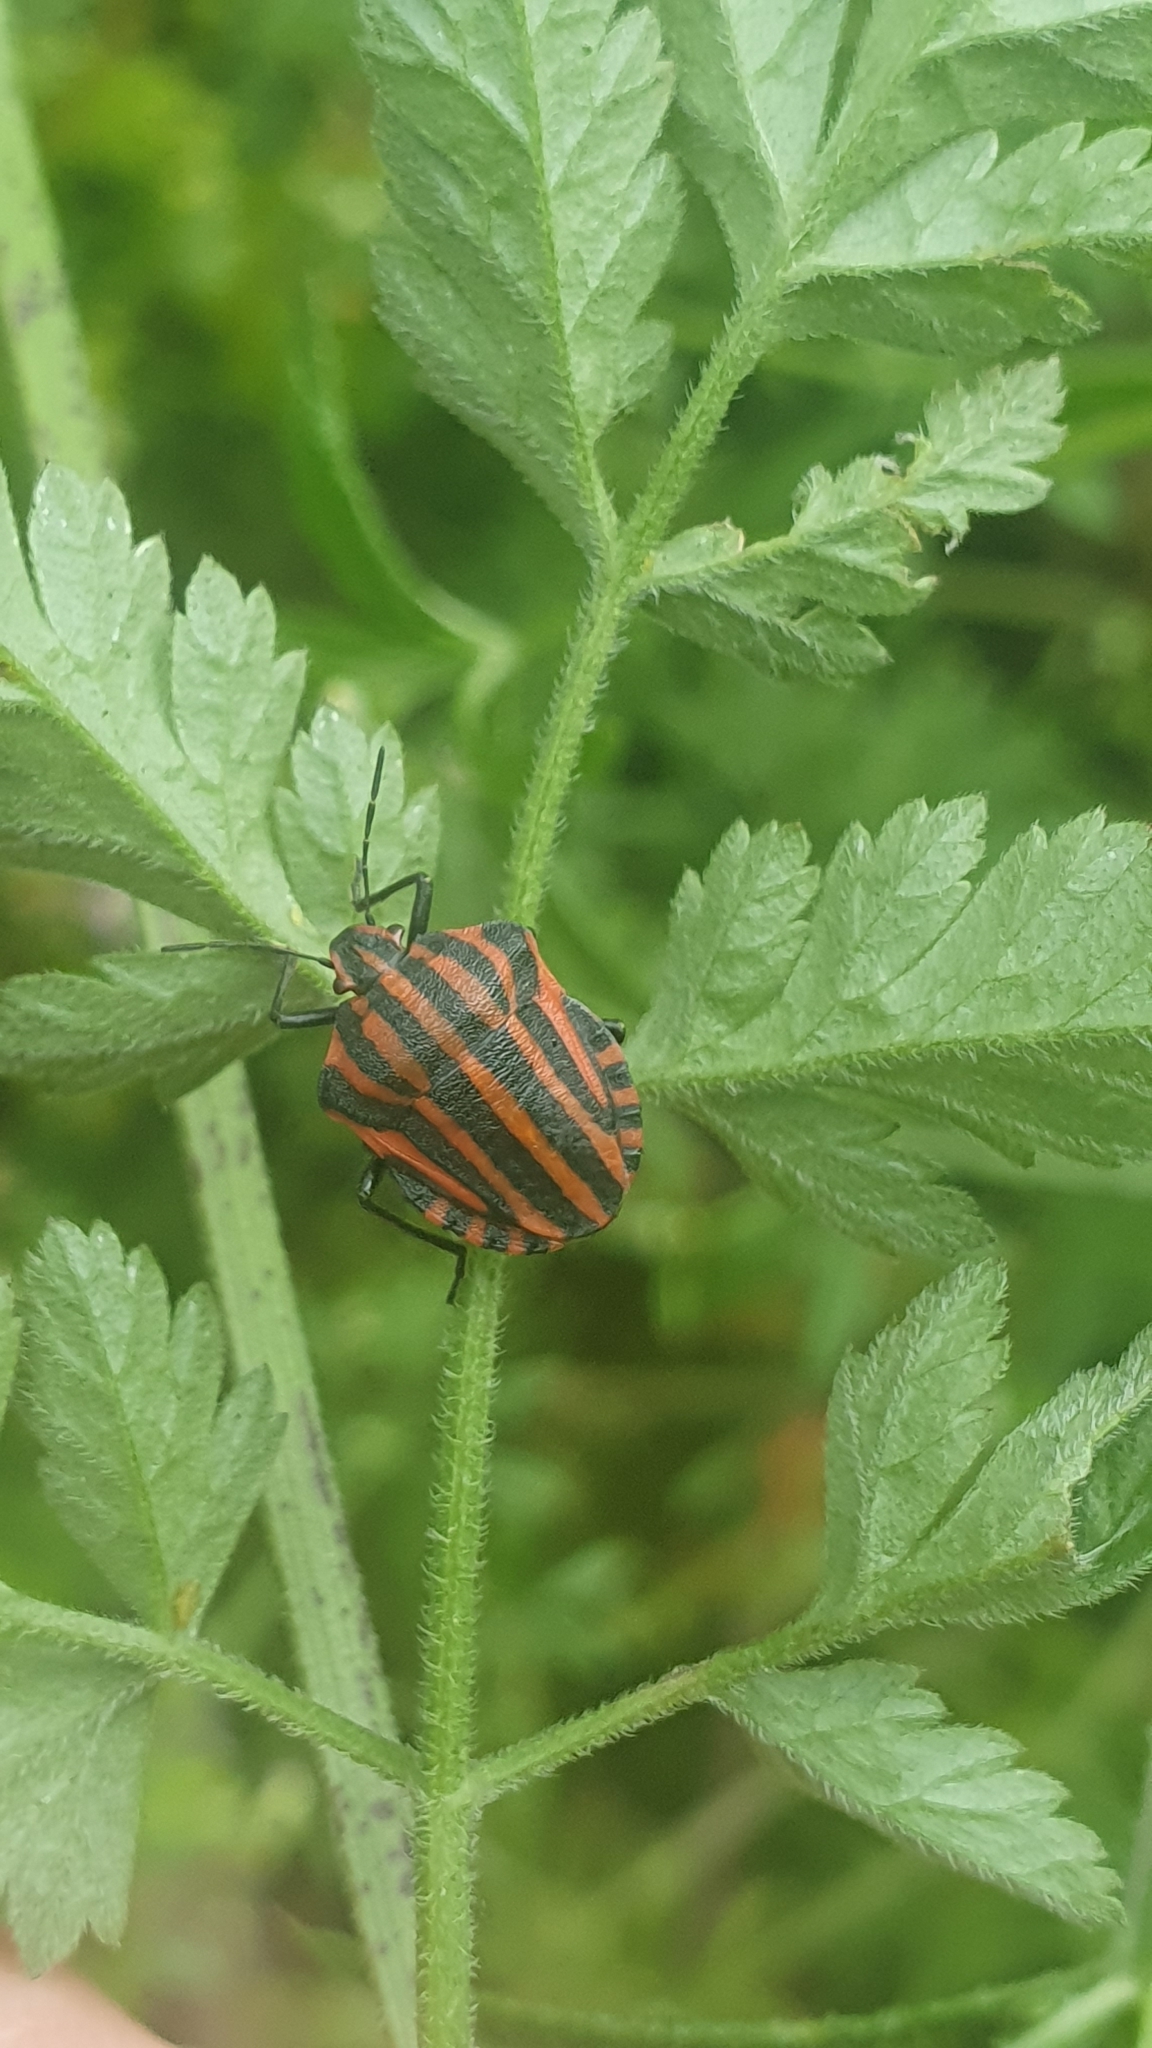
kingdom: Animalia
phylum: Arthropoda
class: Insecta
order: Hemiptera
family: Pentatomidae
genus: Graphosoma
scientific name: Graphosoma italicum
